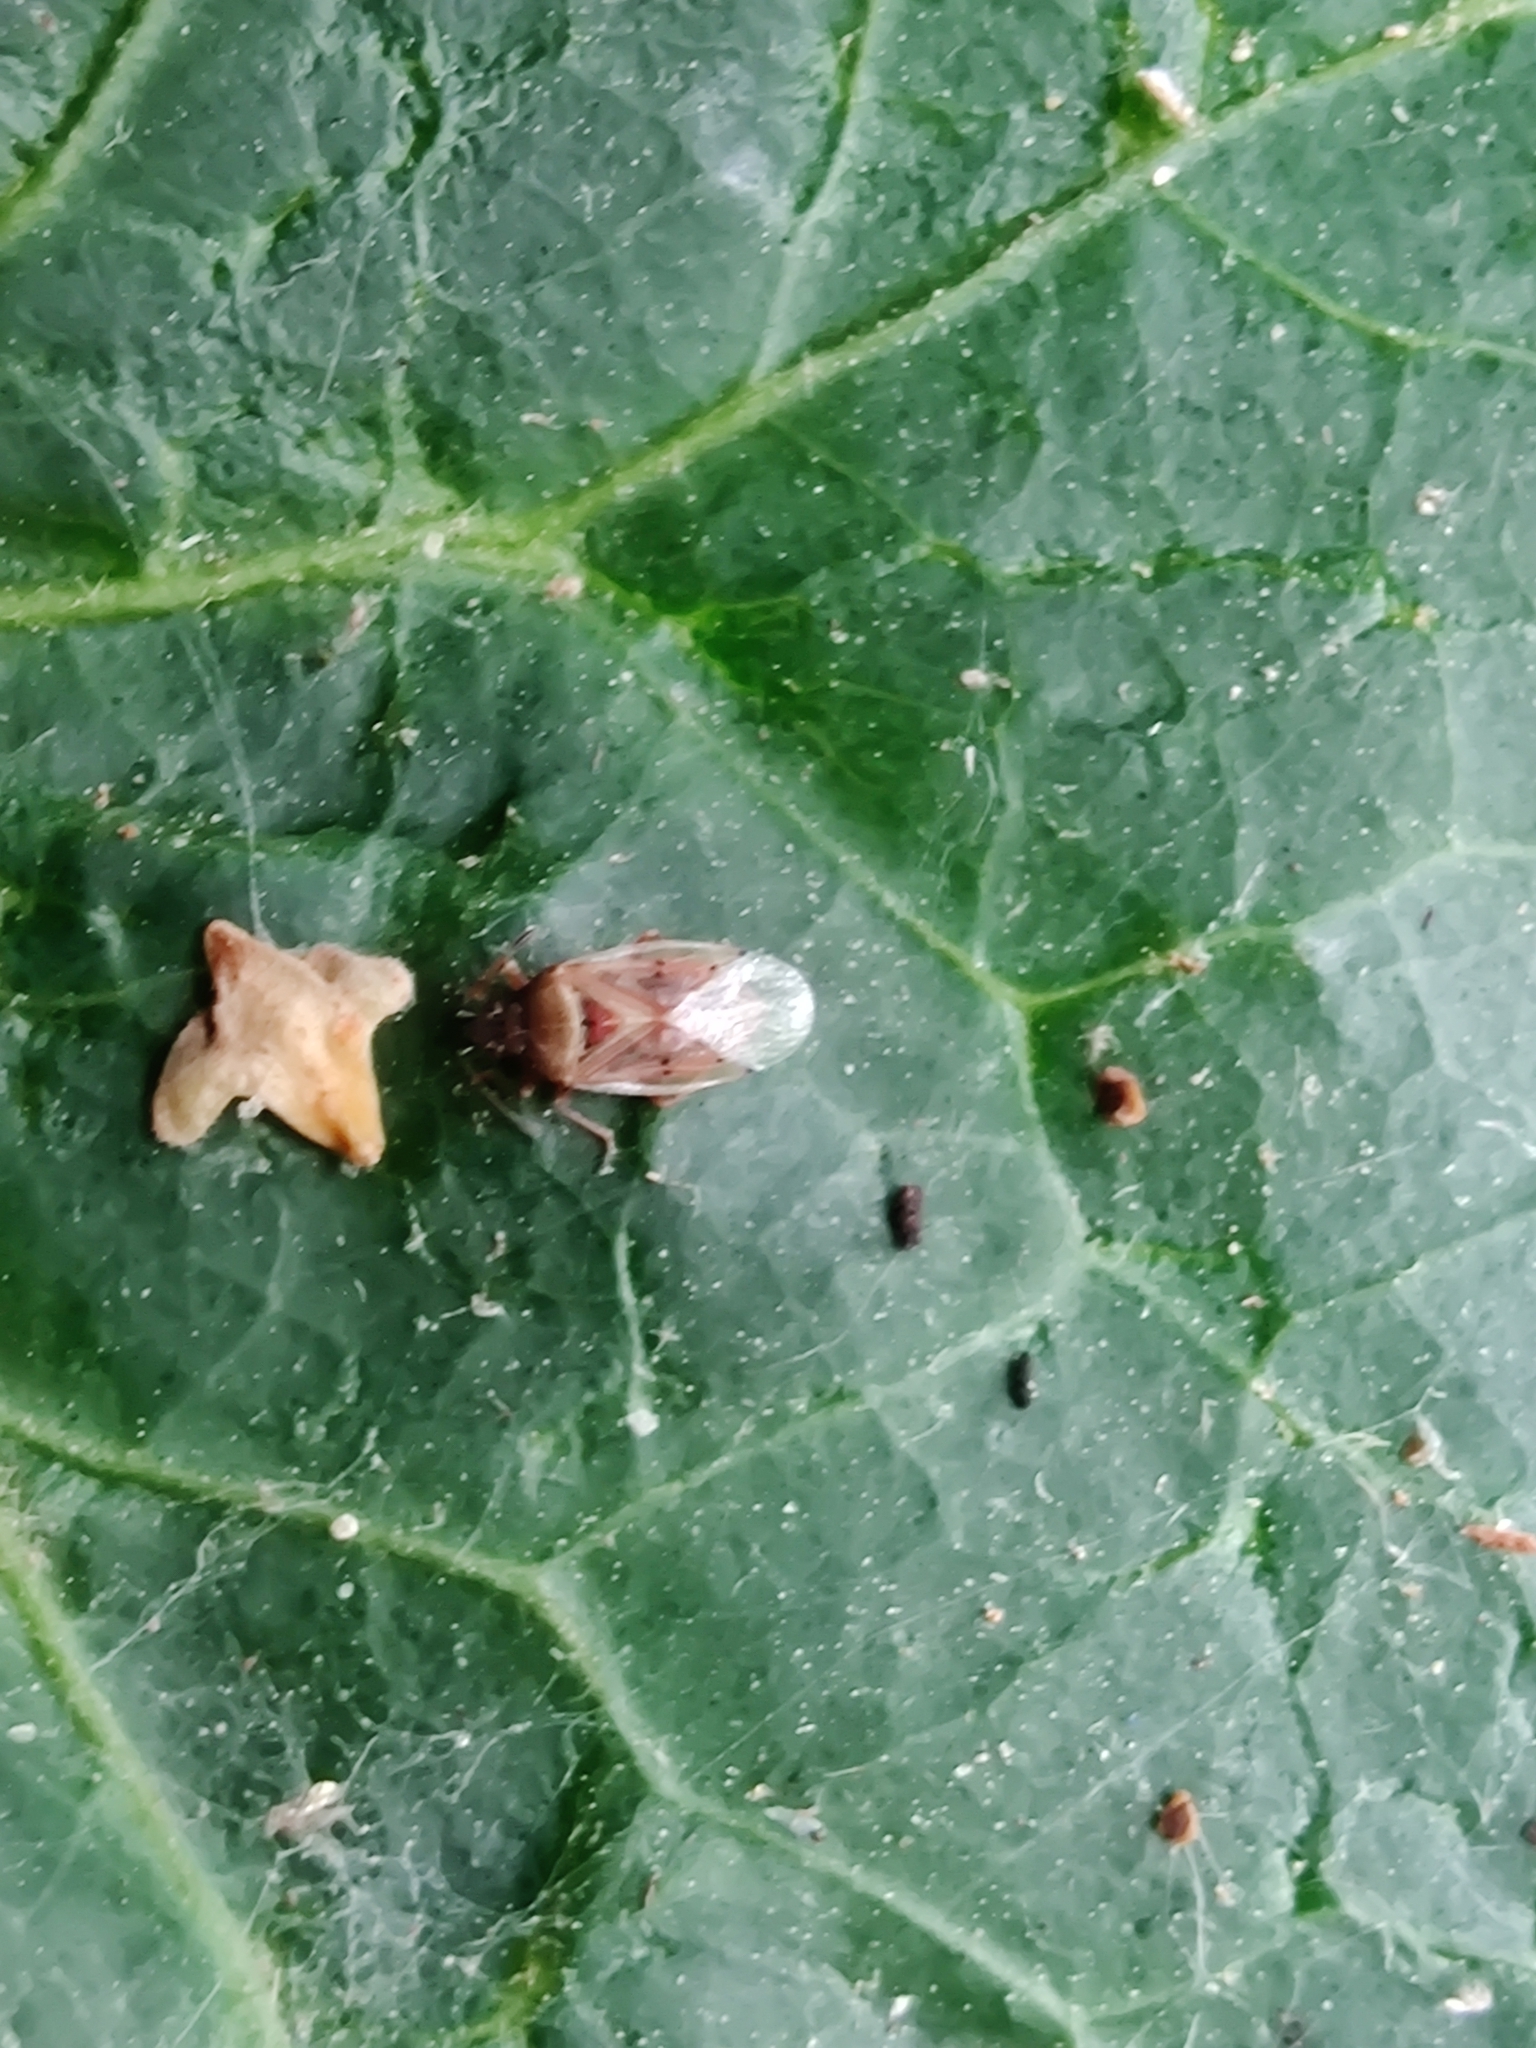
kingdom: Animalia
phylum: Arthropoda
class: Insecta
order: Hemiptera
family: Lygaeidae
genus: Kleidocerys
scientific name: Kleidocerys resedae
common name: Birch catkin bug
